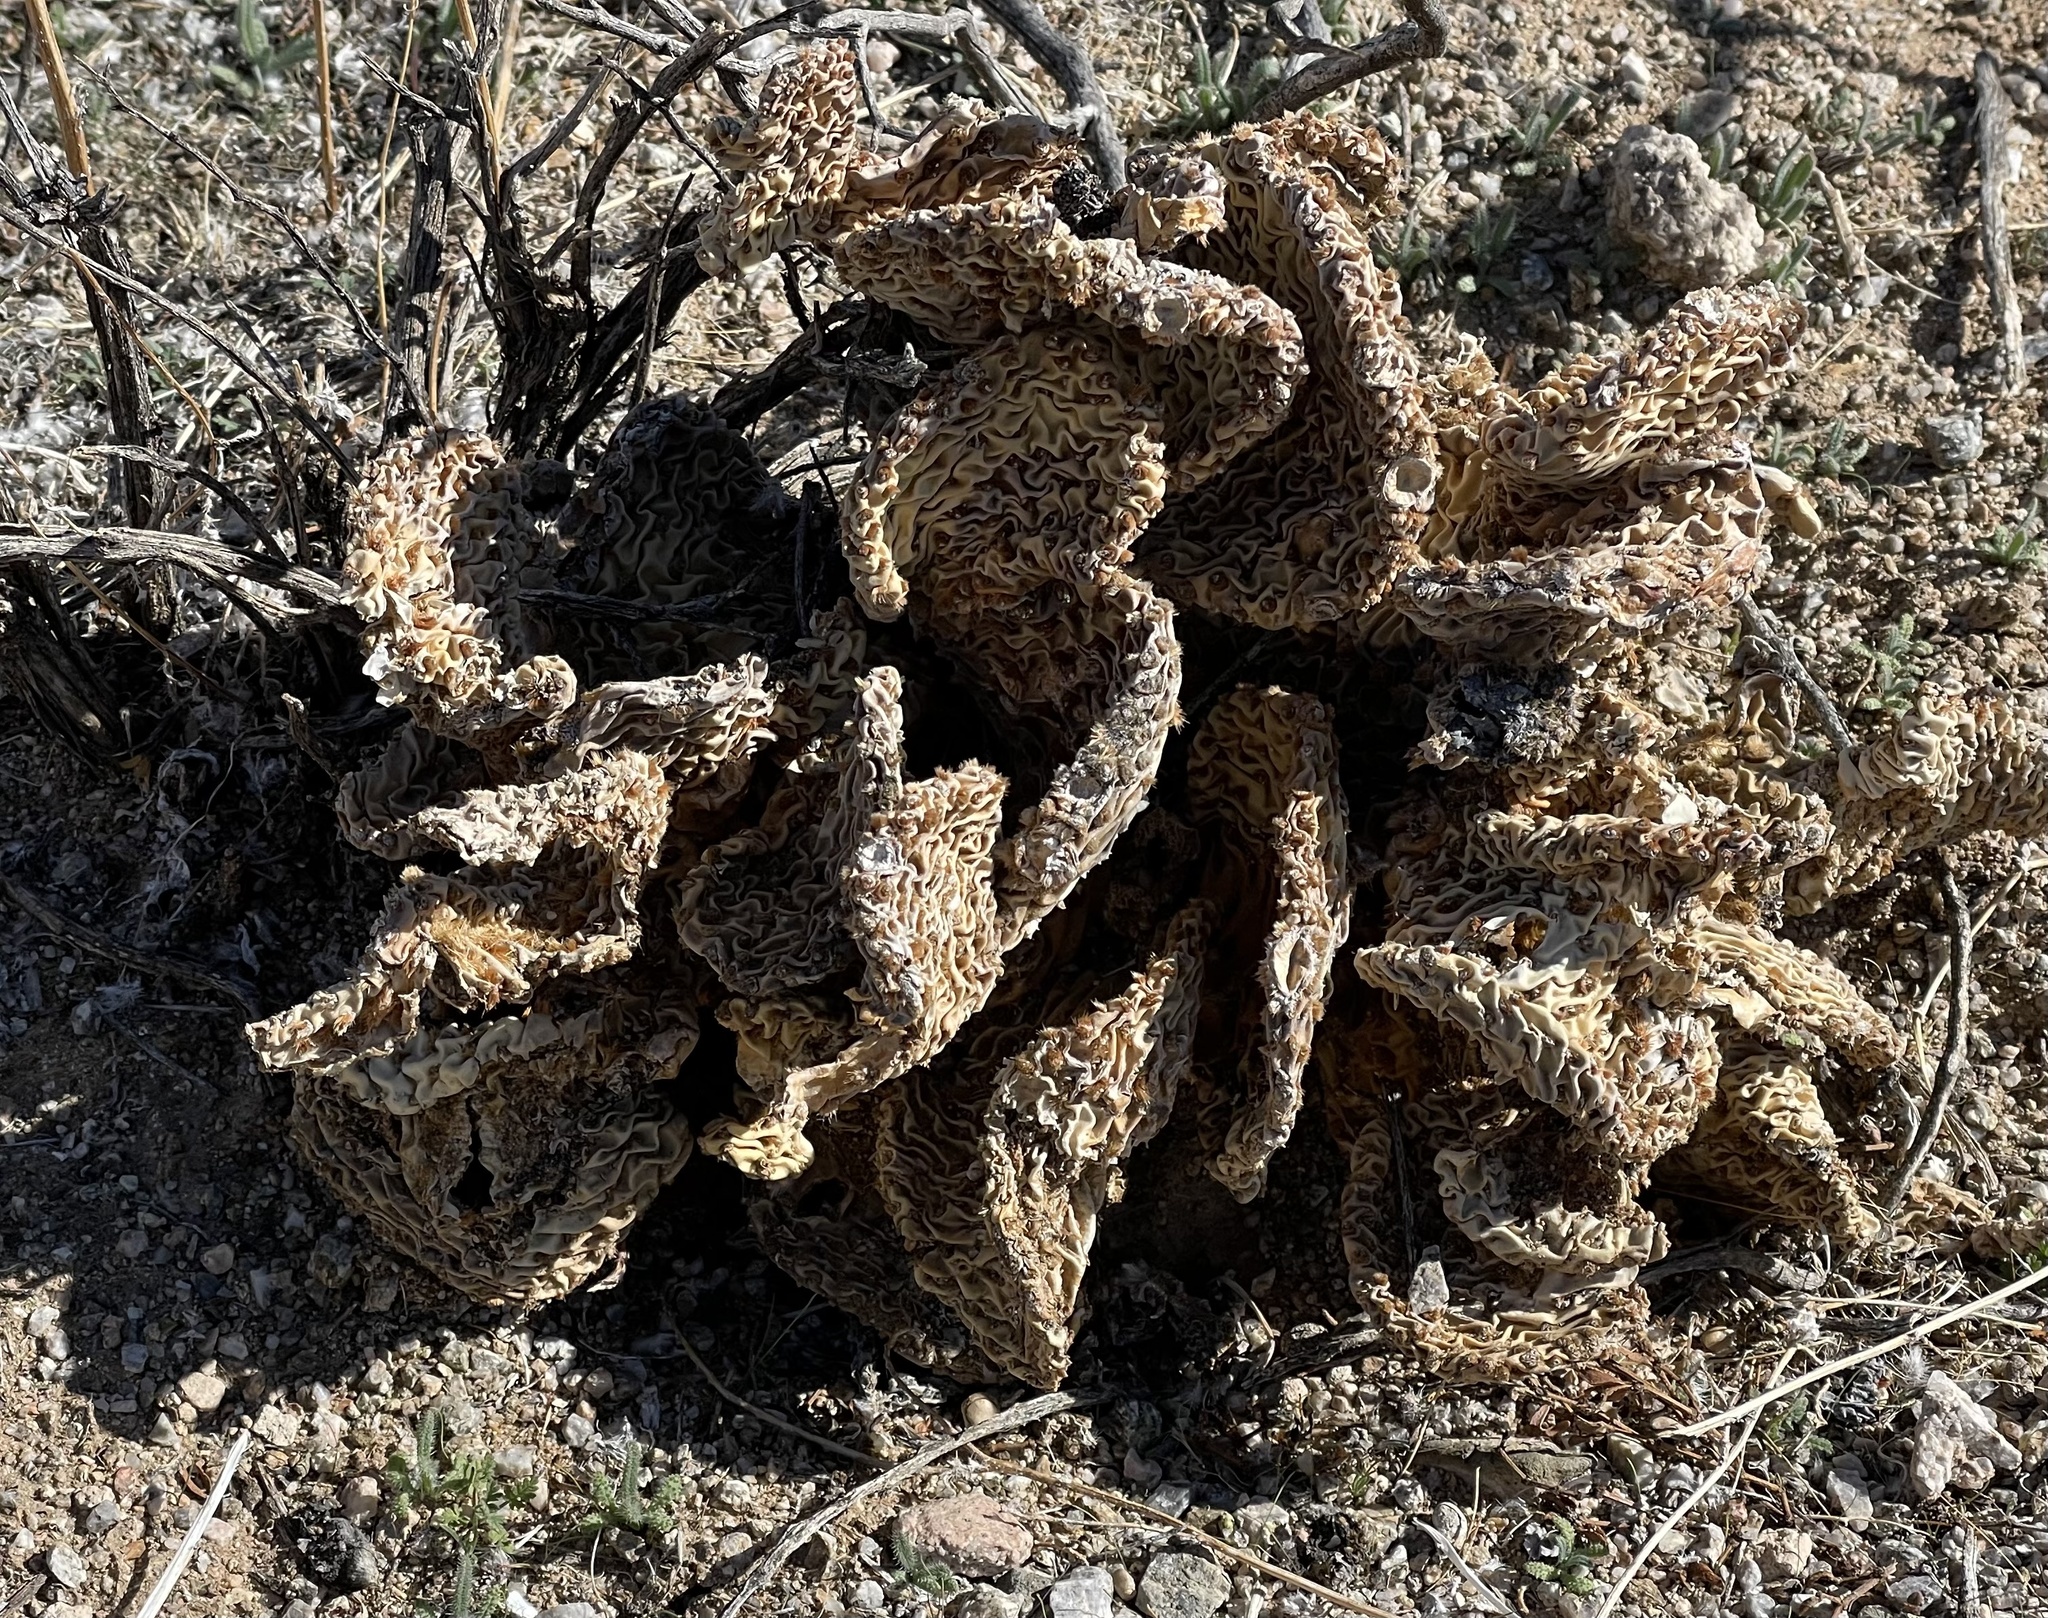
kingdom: Plantae
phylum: Tracheophyta
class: Magnoliopsida
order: Caryophyllales
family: Cactaceae
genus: Opuntia
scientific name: Opuntia basilaris
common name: Beavertail prickly-pear
